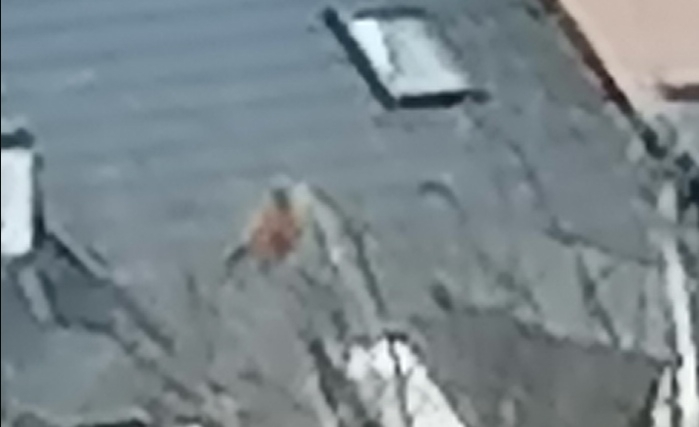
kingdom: Animalia
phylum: Chordata
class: Aves
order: Falconiformes
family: Falconidae
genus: Falco
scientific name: Falco tinnunculus
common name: Common kestrel
